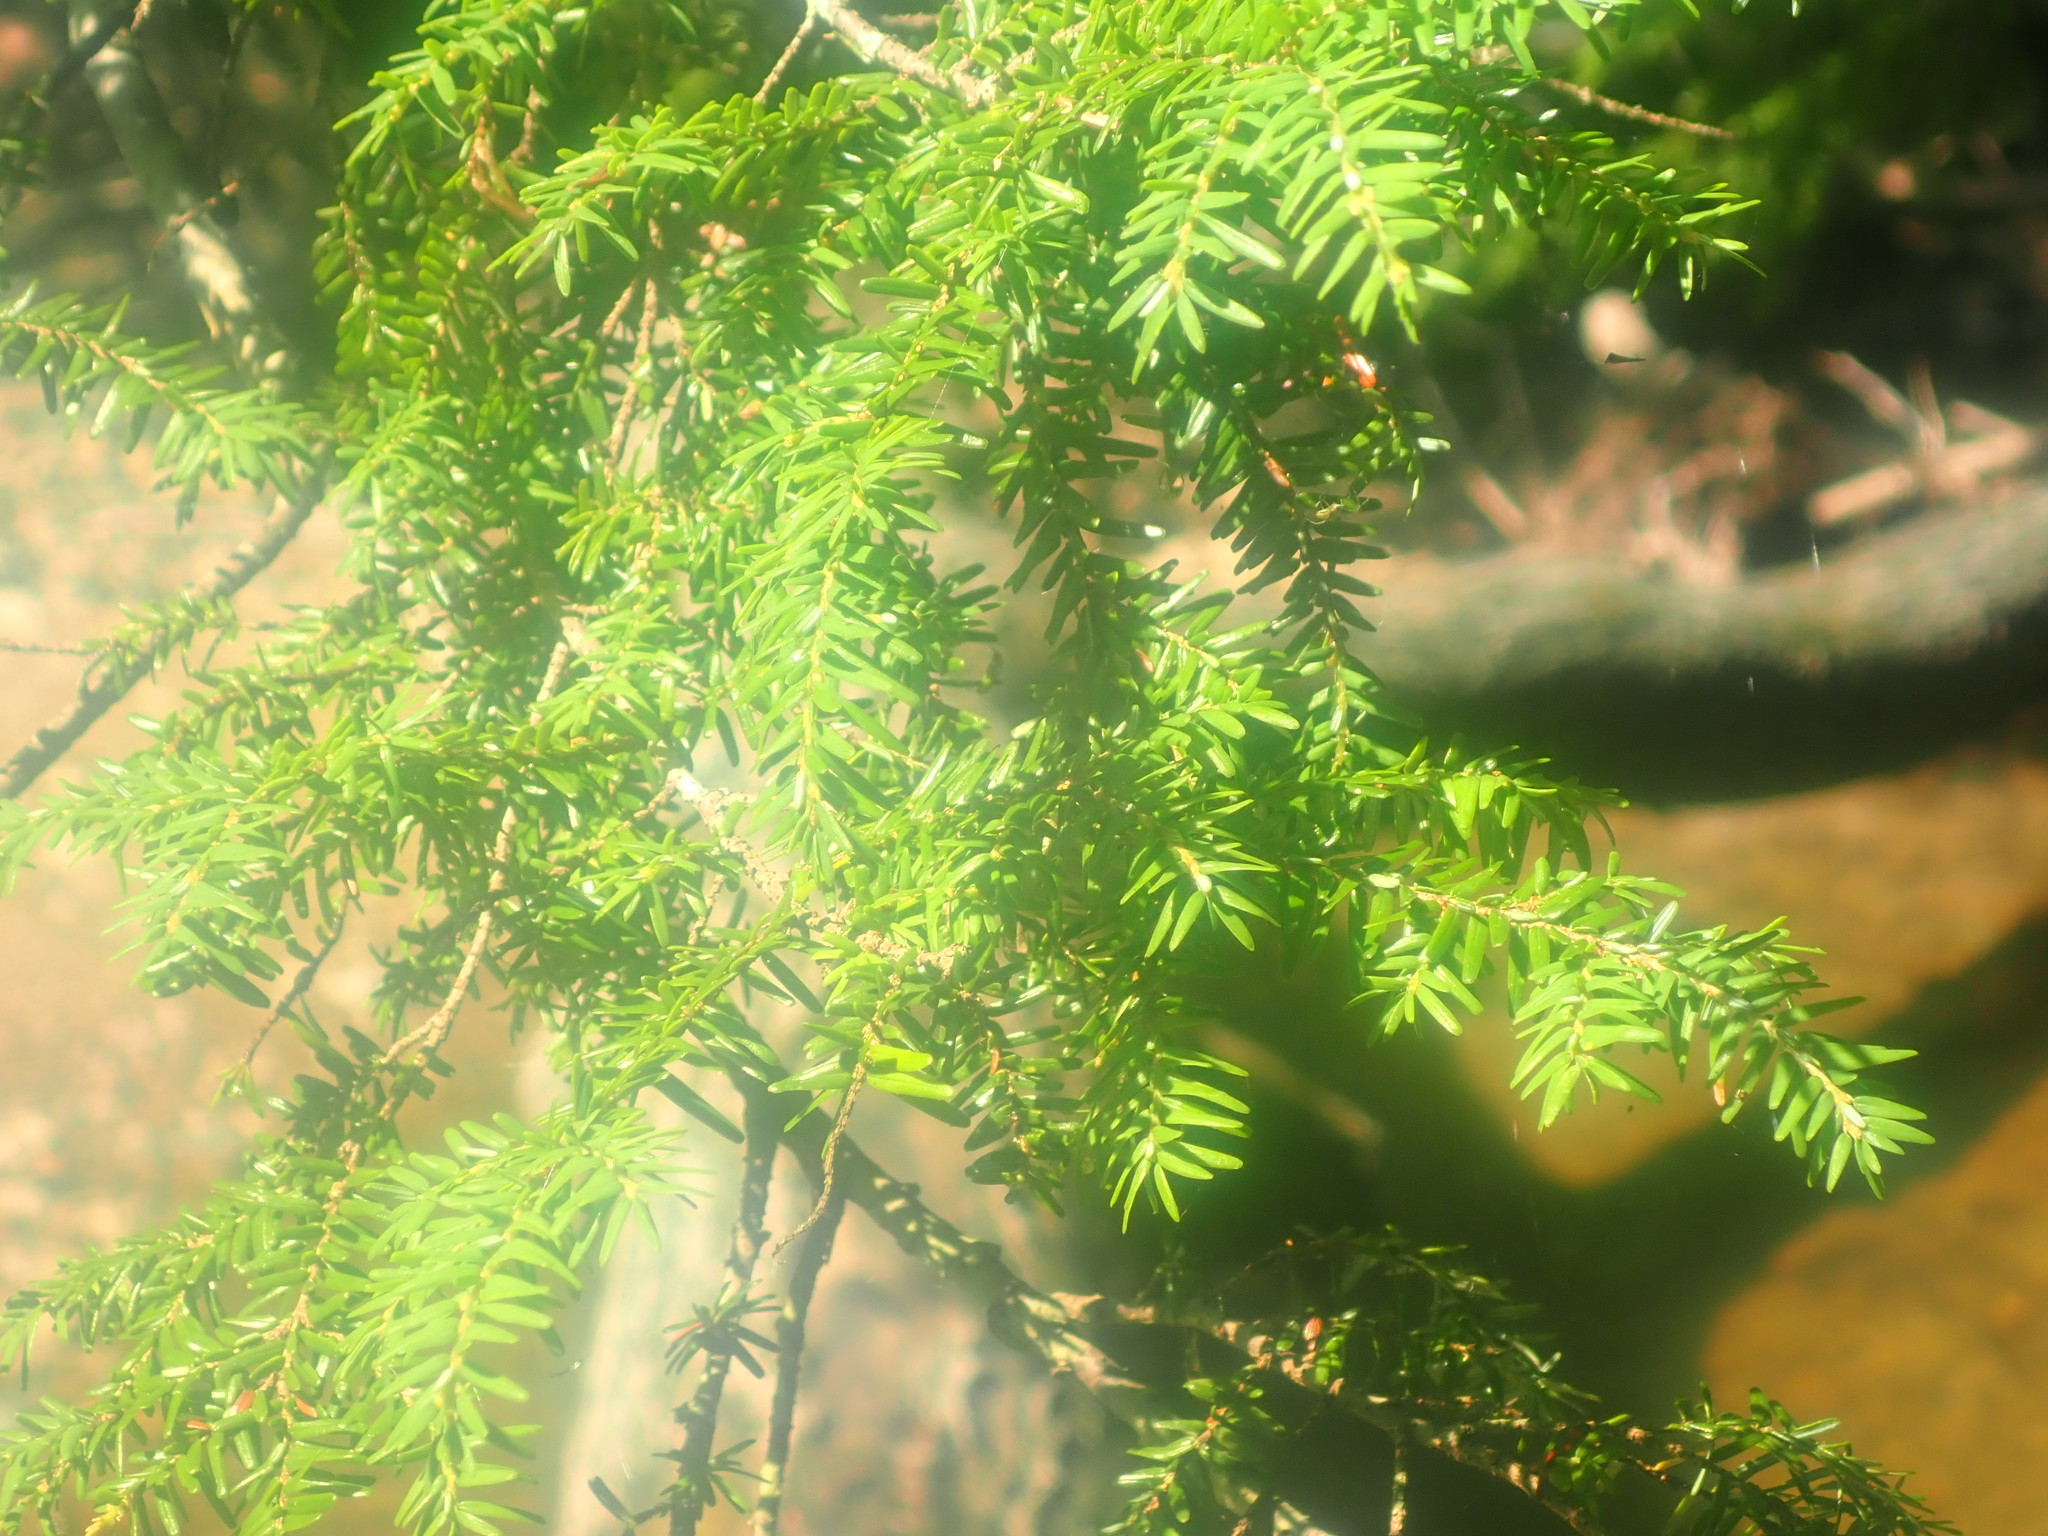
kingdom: Plantae
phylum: Tracheophyta
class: Pinopsida
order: Pinales
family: Pinaceae
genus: Tsuga
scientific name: Tsuga canadensis
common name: Eastern hemlock
